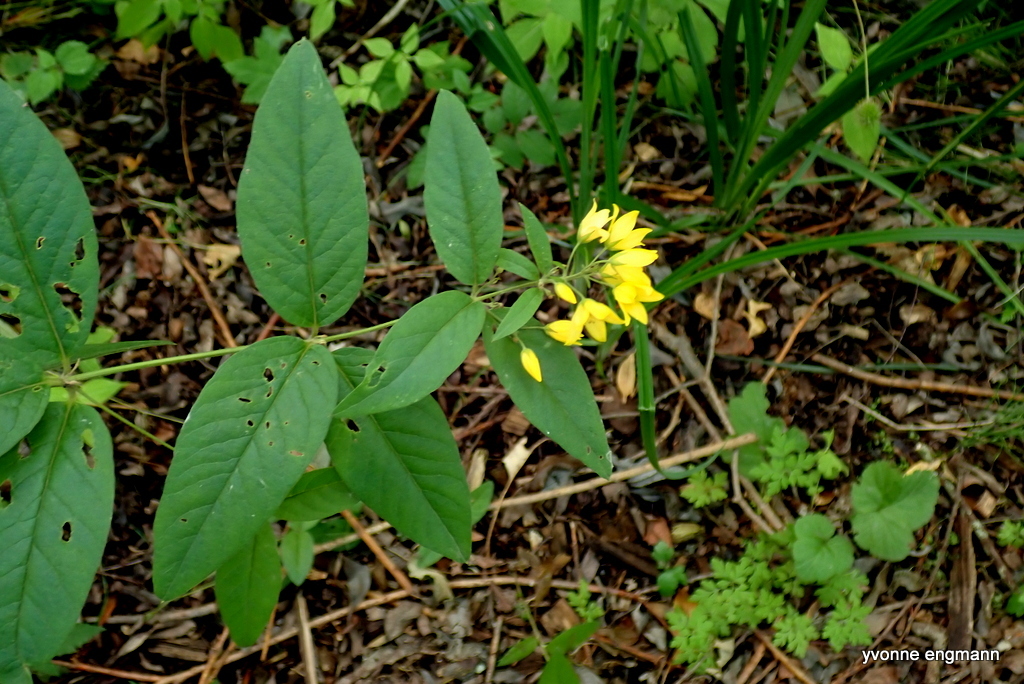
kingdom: Plantae
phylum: Tracheophyta
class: Magnoliopsida
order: Ericales
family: Primulaceae
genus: Lysimachia
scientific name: Lysimachia vulgaris
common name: Yellow loosestrife
